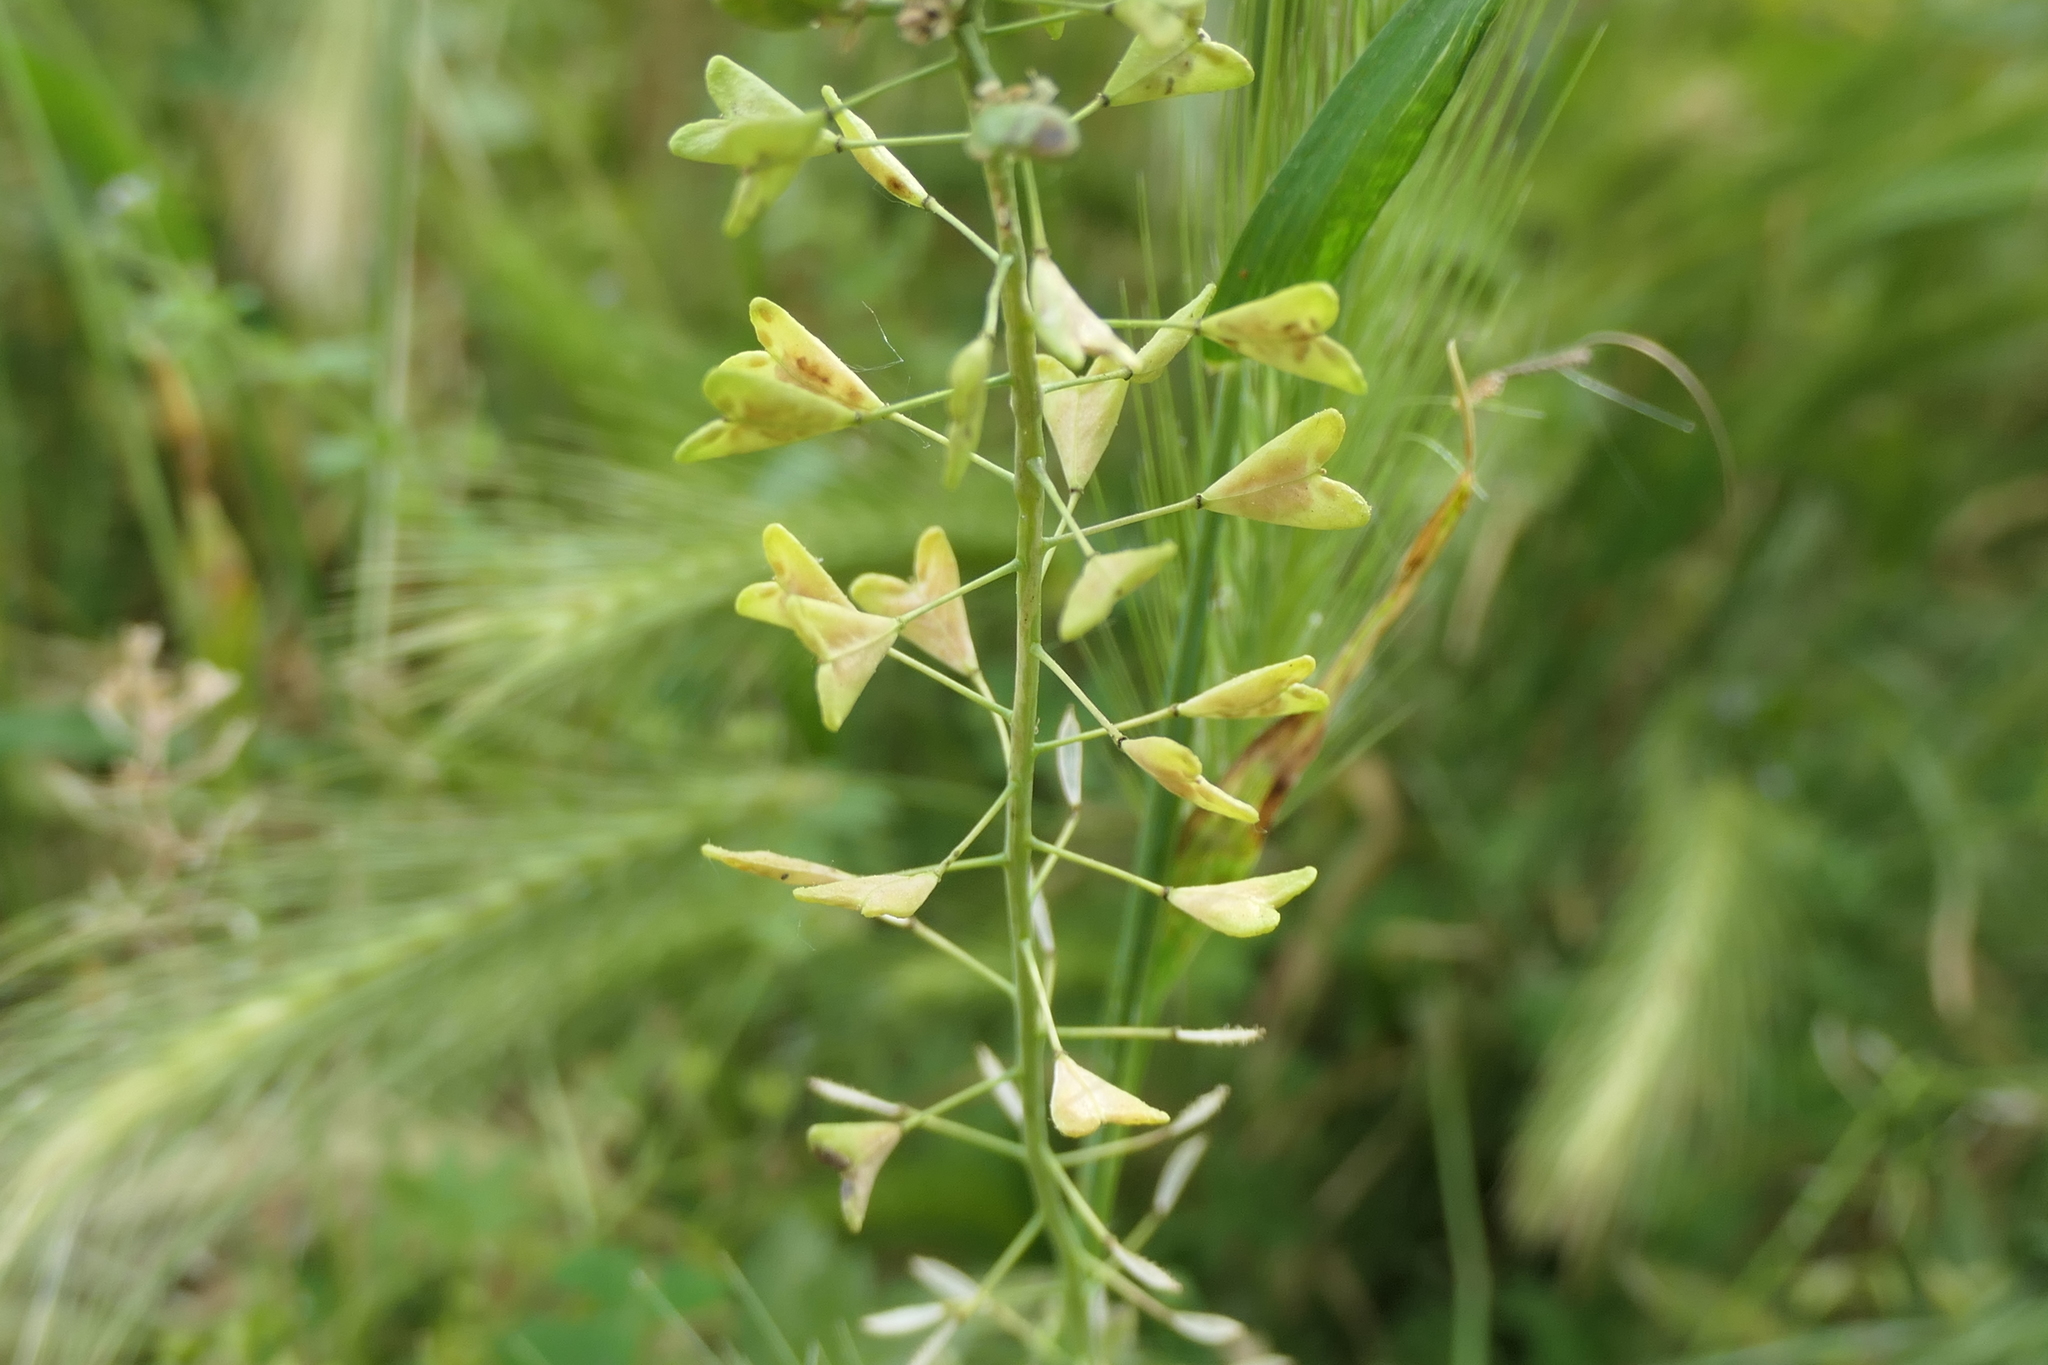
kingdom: Plantae
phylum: Tracheophyta
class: Magnoliopsida
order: Brassicales
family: Brassicaceae
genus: Capsella
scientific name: Capsella bursa-pastoris
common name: Shepherd's purse
